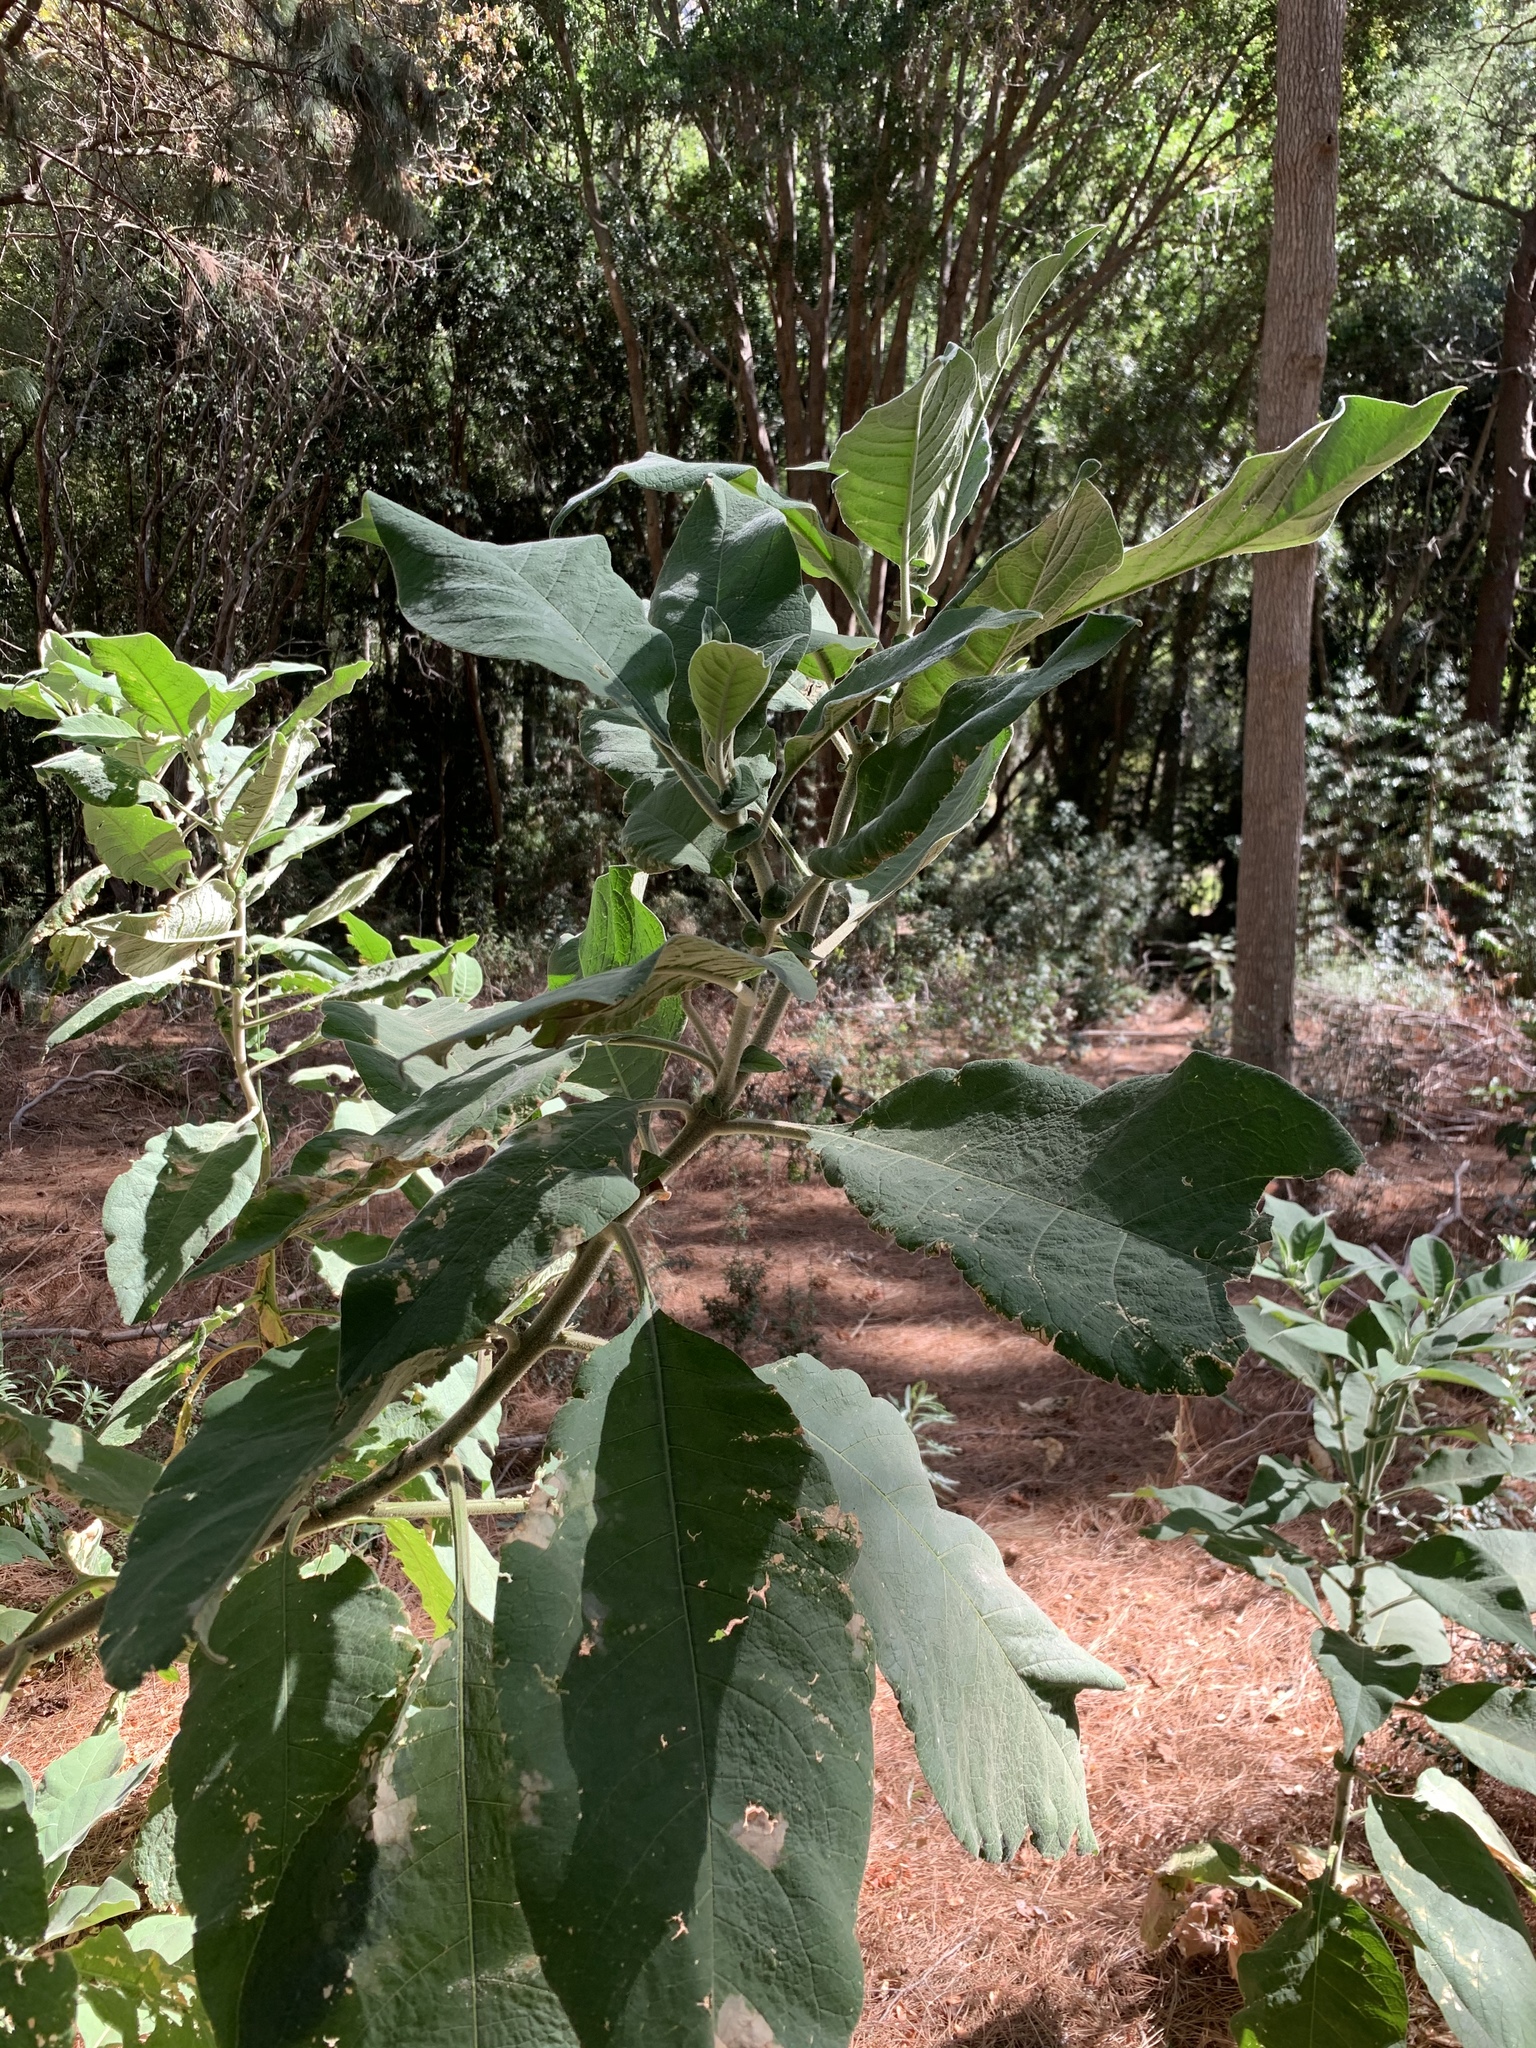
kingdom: Plantae
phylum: Tracheophyta
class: Magnoliopsida
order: Solanales
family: Solanaceae
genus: Solanum
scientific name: Solanum mauritianum
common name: Earleaf nightshade
